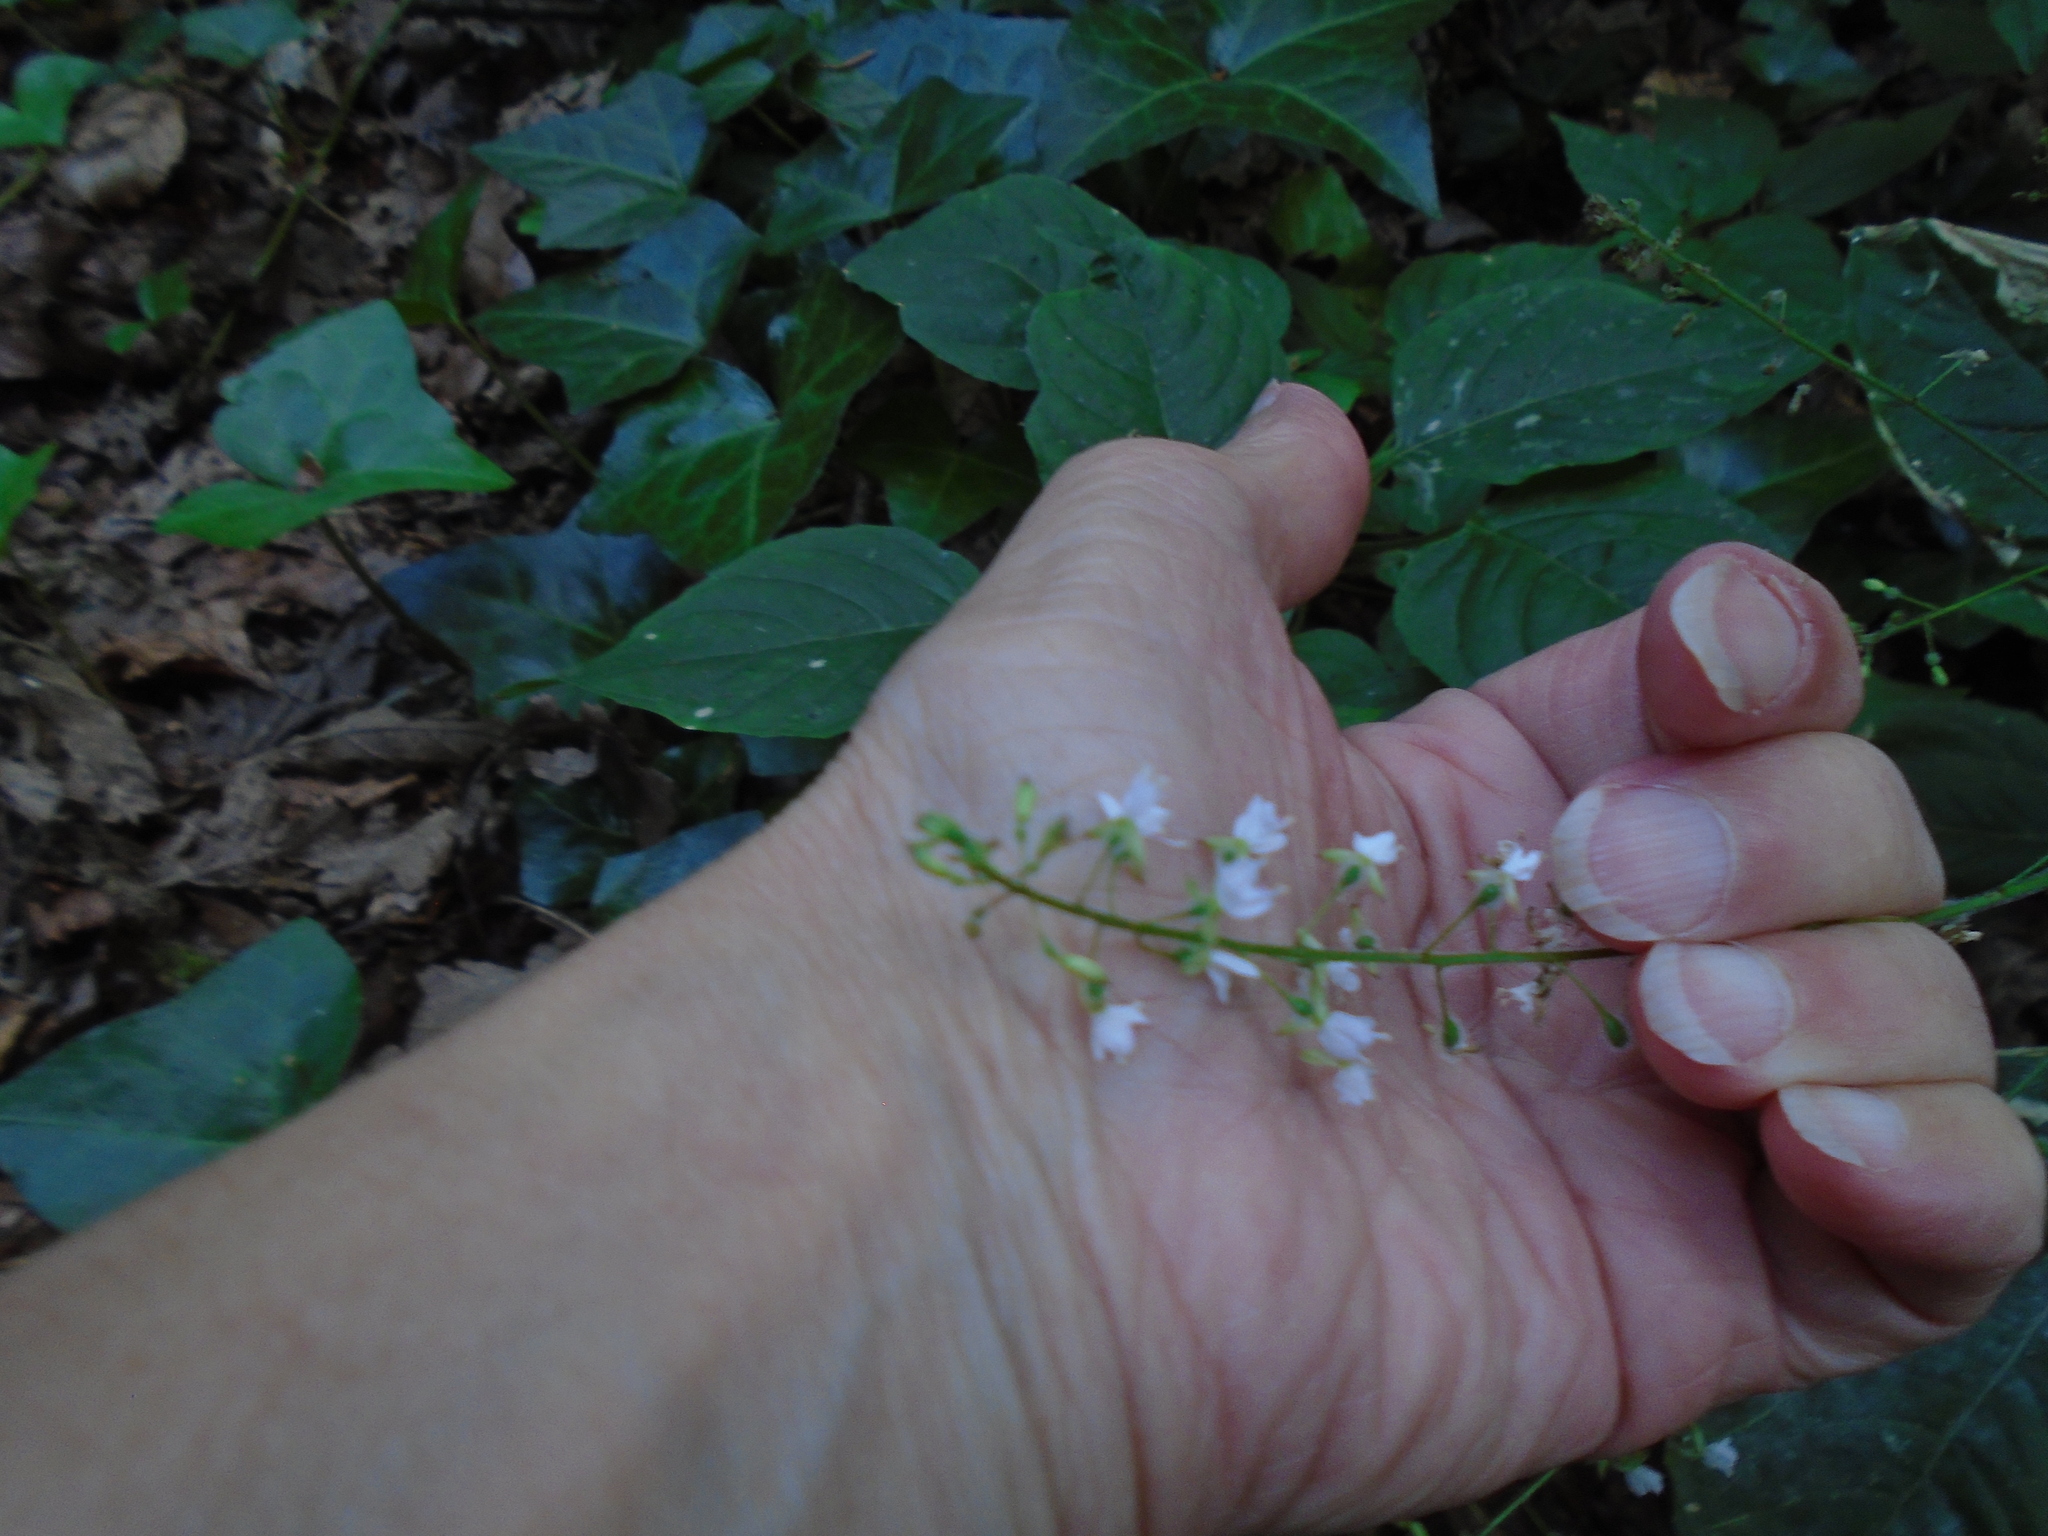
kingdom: Plantae
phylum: Tracheophyta
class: Magnoliopsida
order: Myrtales
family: Onagraceae
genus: Circaea
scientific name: Circaea lutetiana
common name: Enchanter's-nightshade
